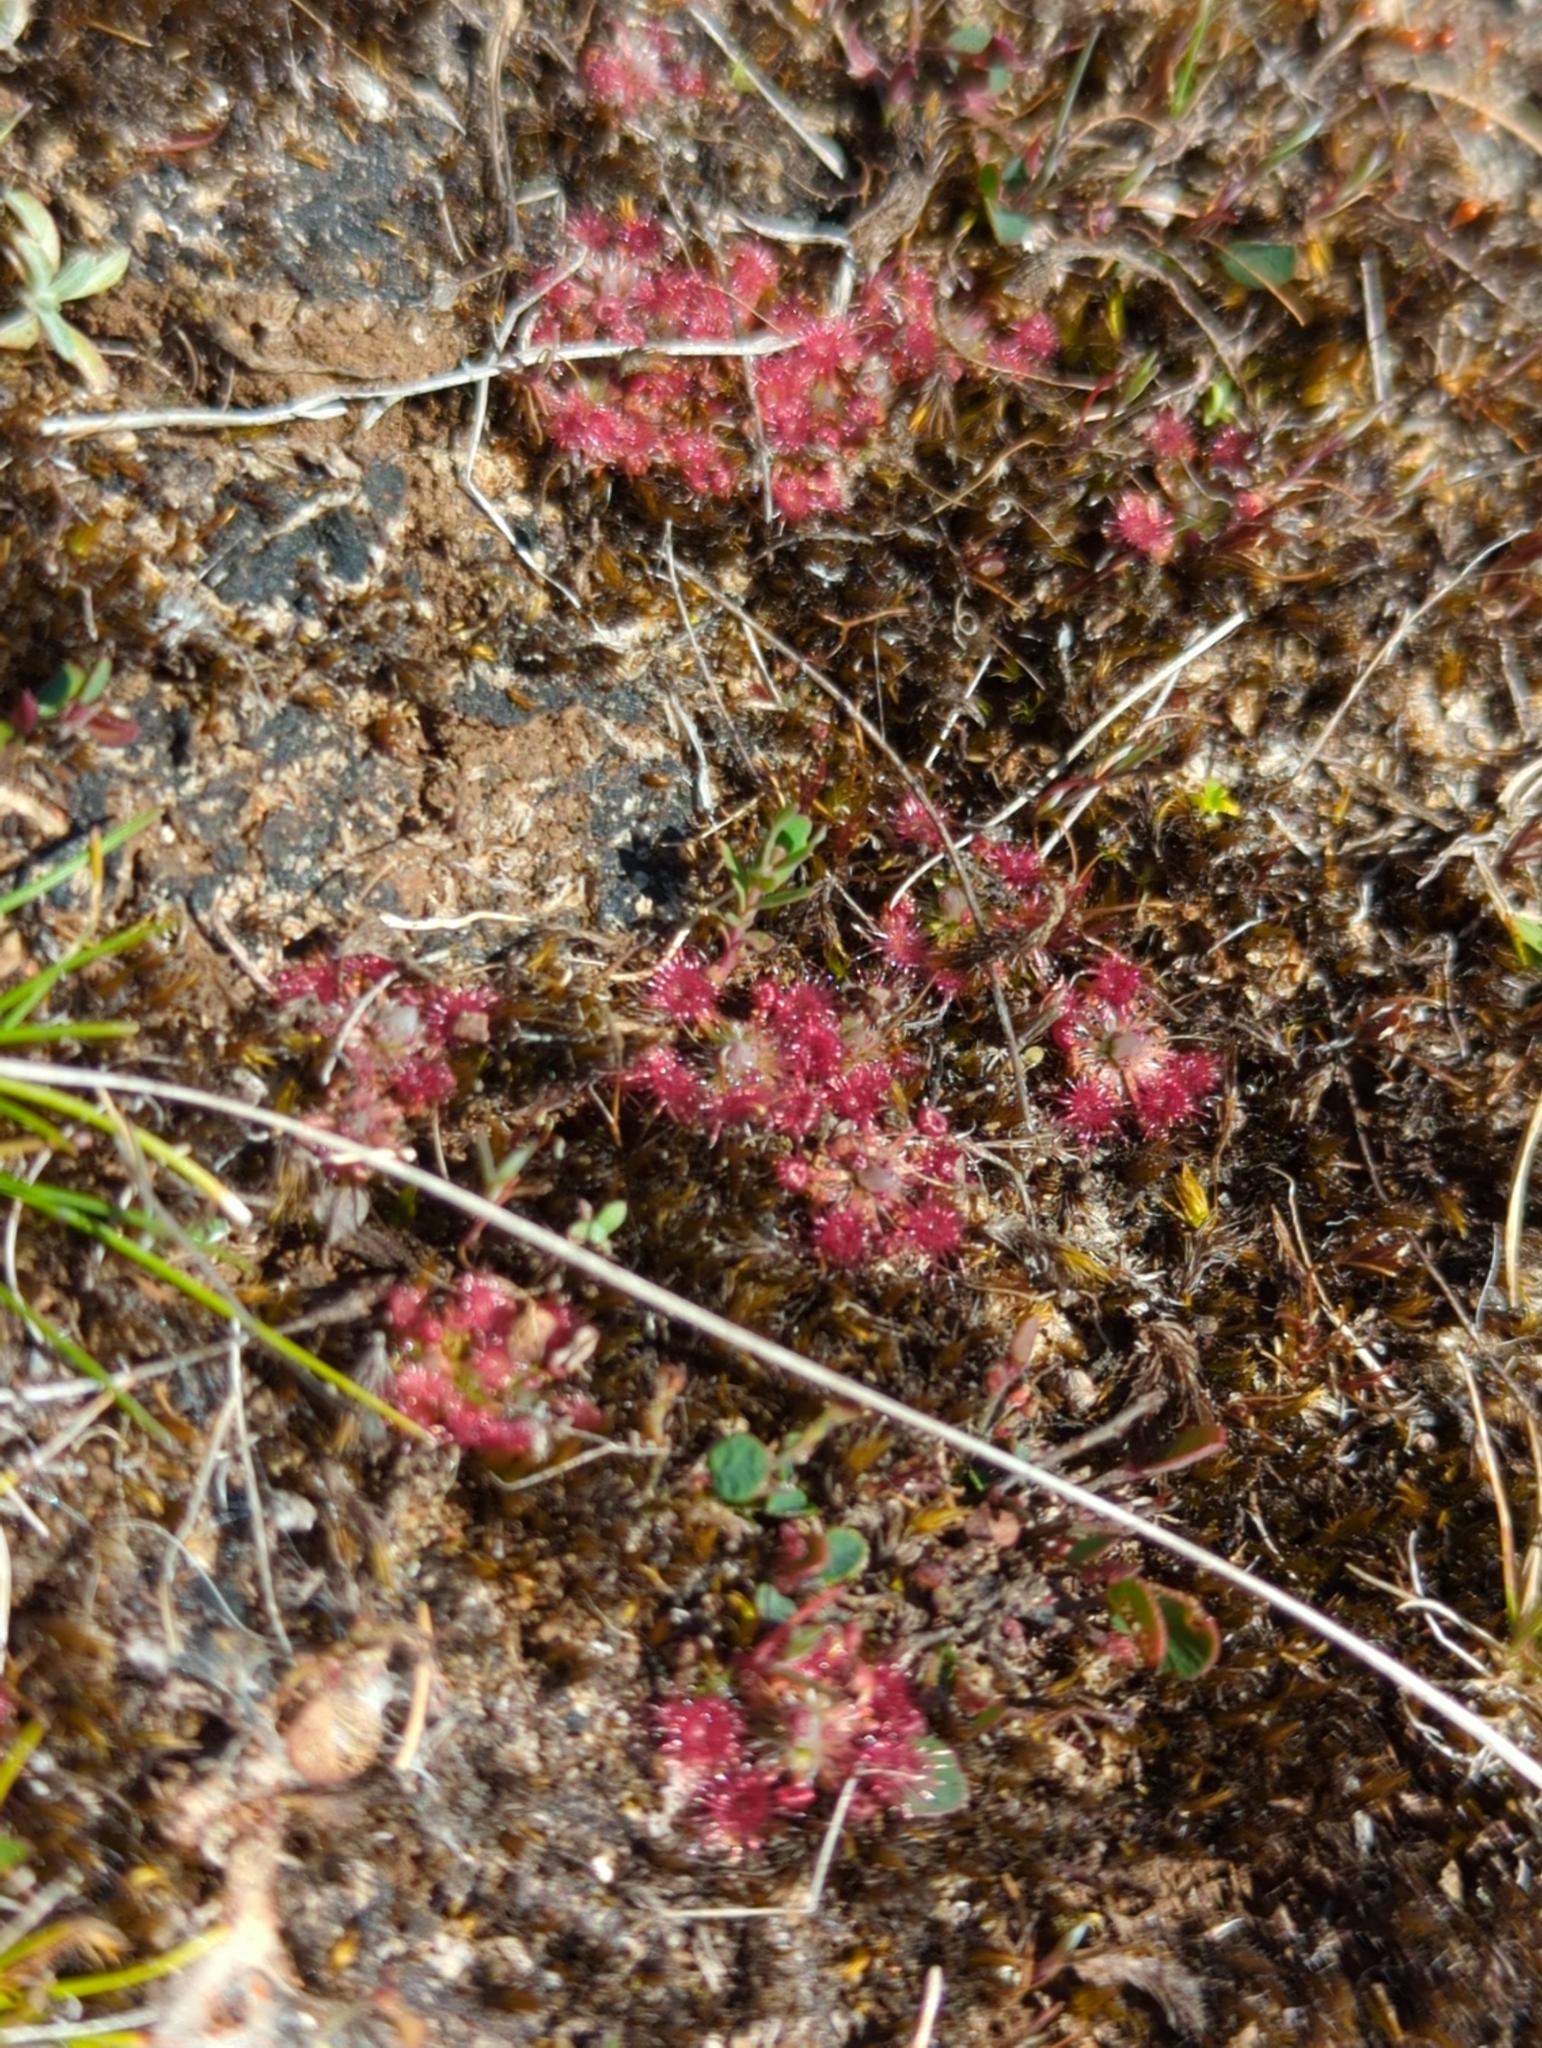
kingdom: Plantae
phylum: Tracheophyta
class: Magnoliopsida
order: Caryophyllales
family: Droseraceae
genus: Drosera
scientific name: Drosera pygmaea
